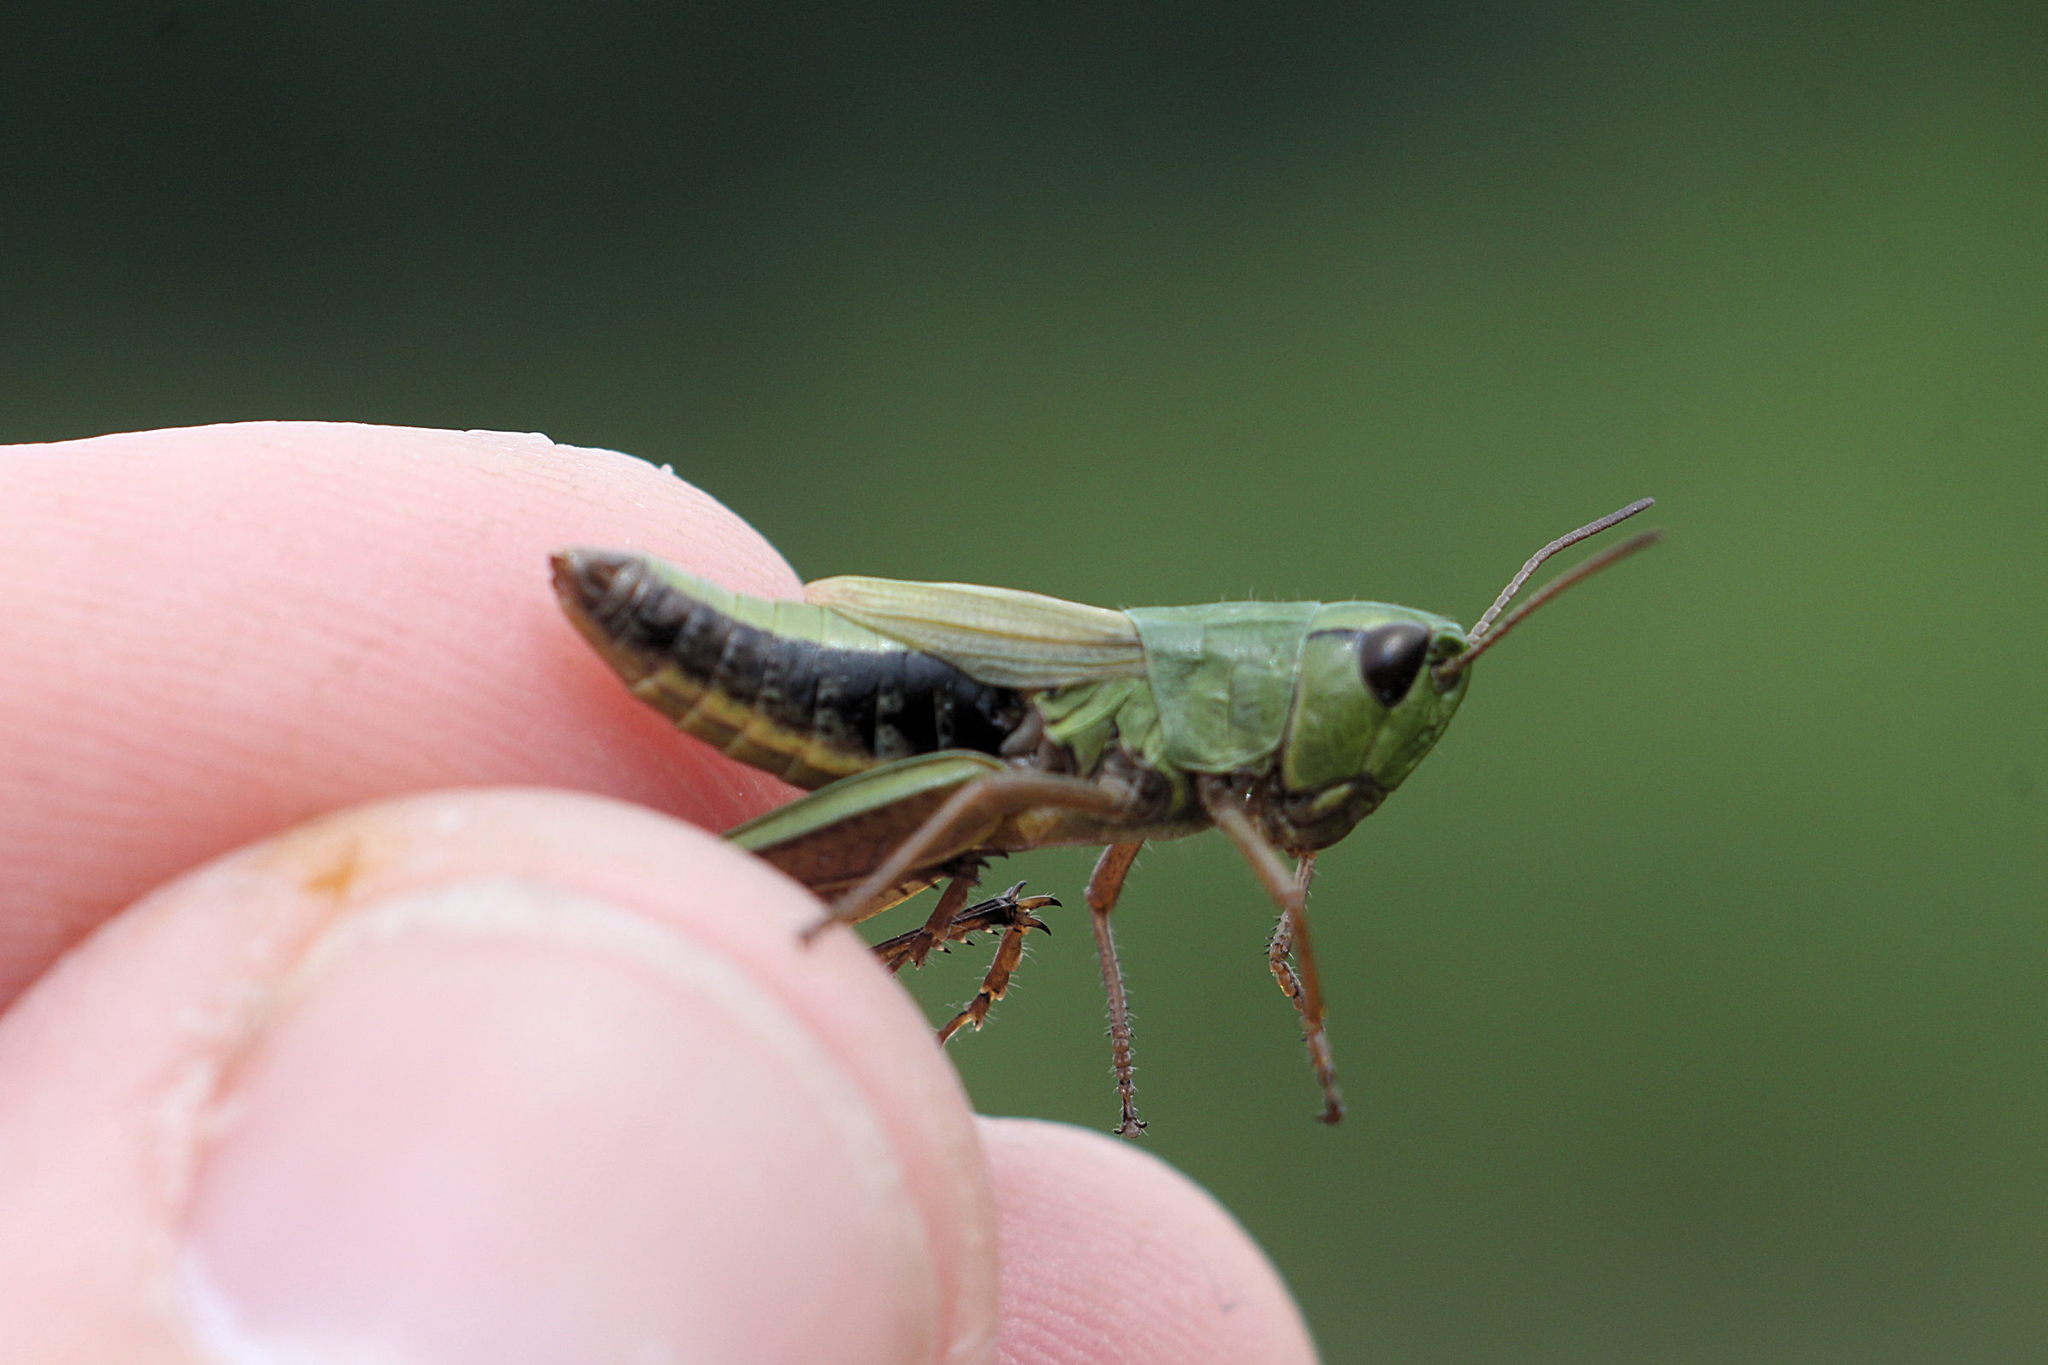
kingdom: Animalia
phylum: Arthropoda
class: Insecta
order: Orthoptera
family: Acrididae
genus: Pseudochorthippus
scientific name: Pseudochorthippus parallelus
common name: Meadow grasshopper
